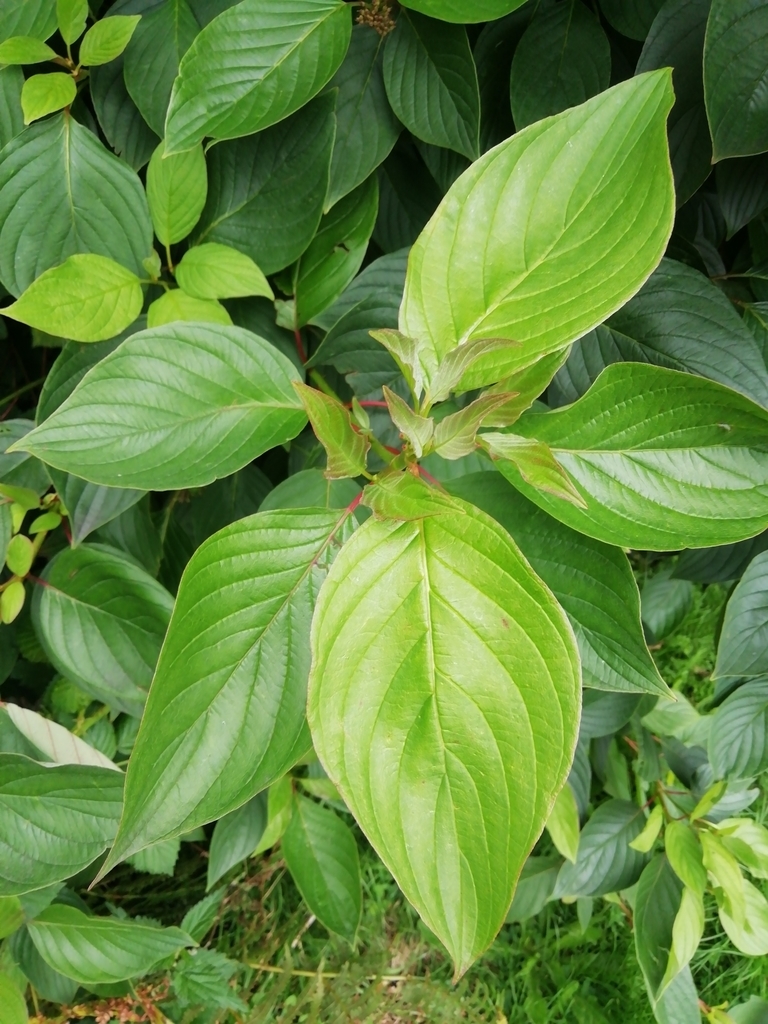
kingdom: Plantae
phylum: Tracheophyta
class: Magnoliopsida
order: Cornales
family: Cornaceae
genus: Cornus
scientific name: Cornus sanguinea
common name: Dogwood
